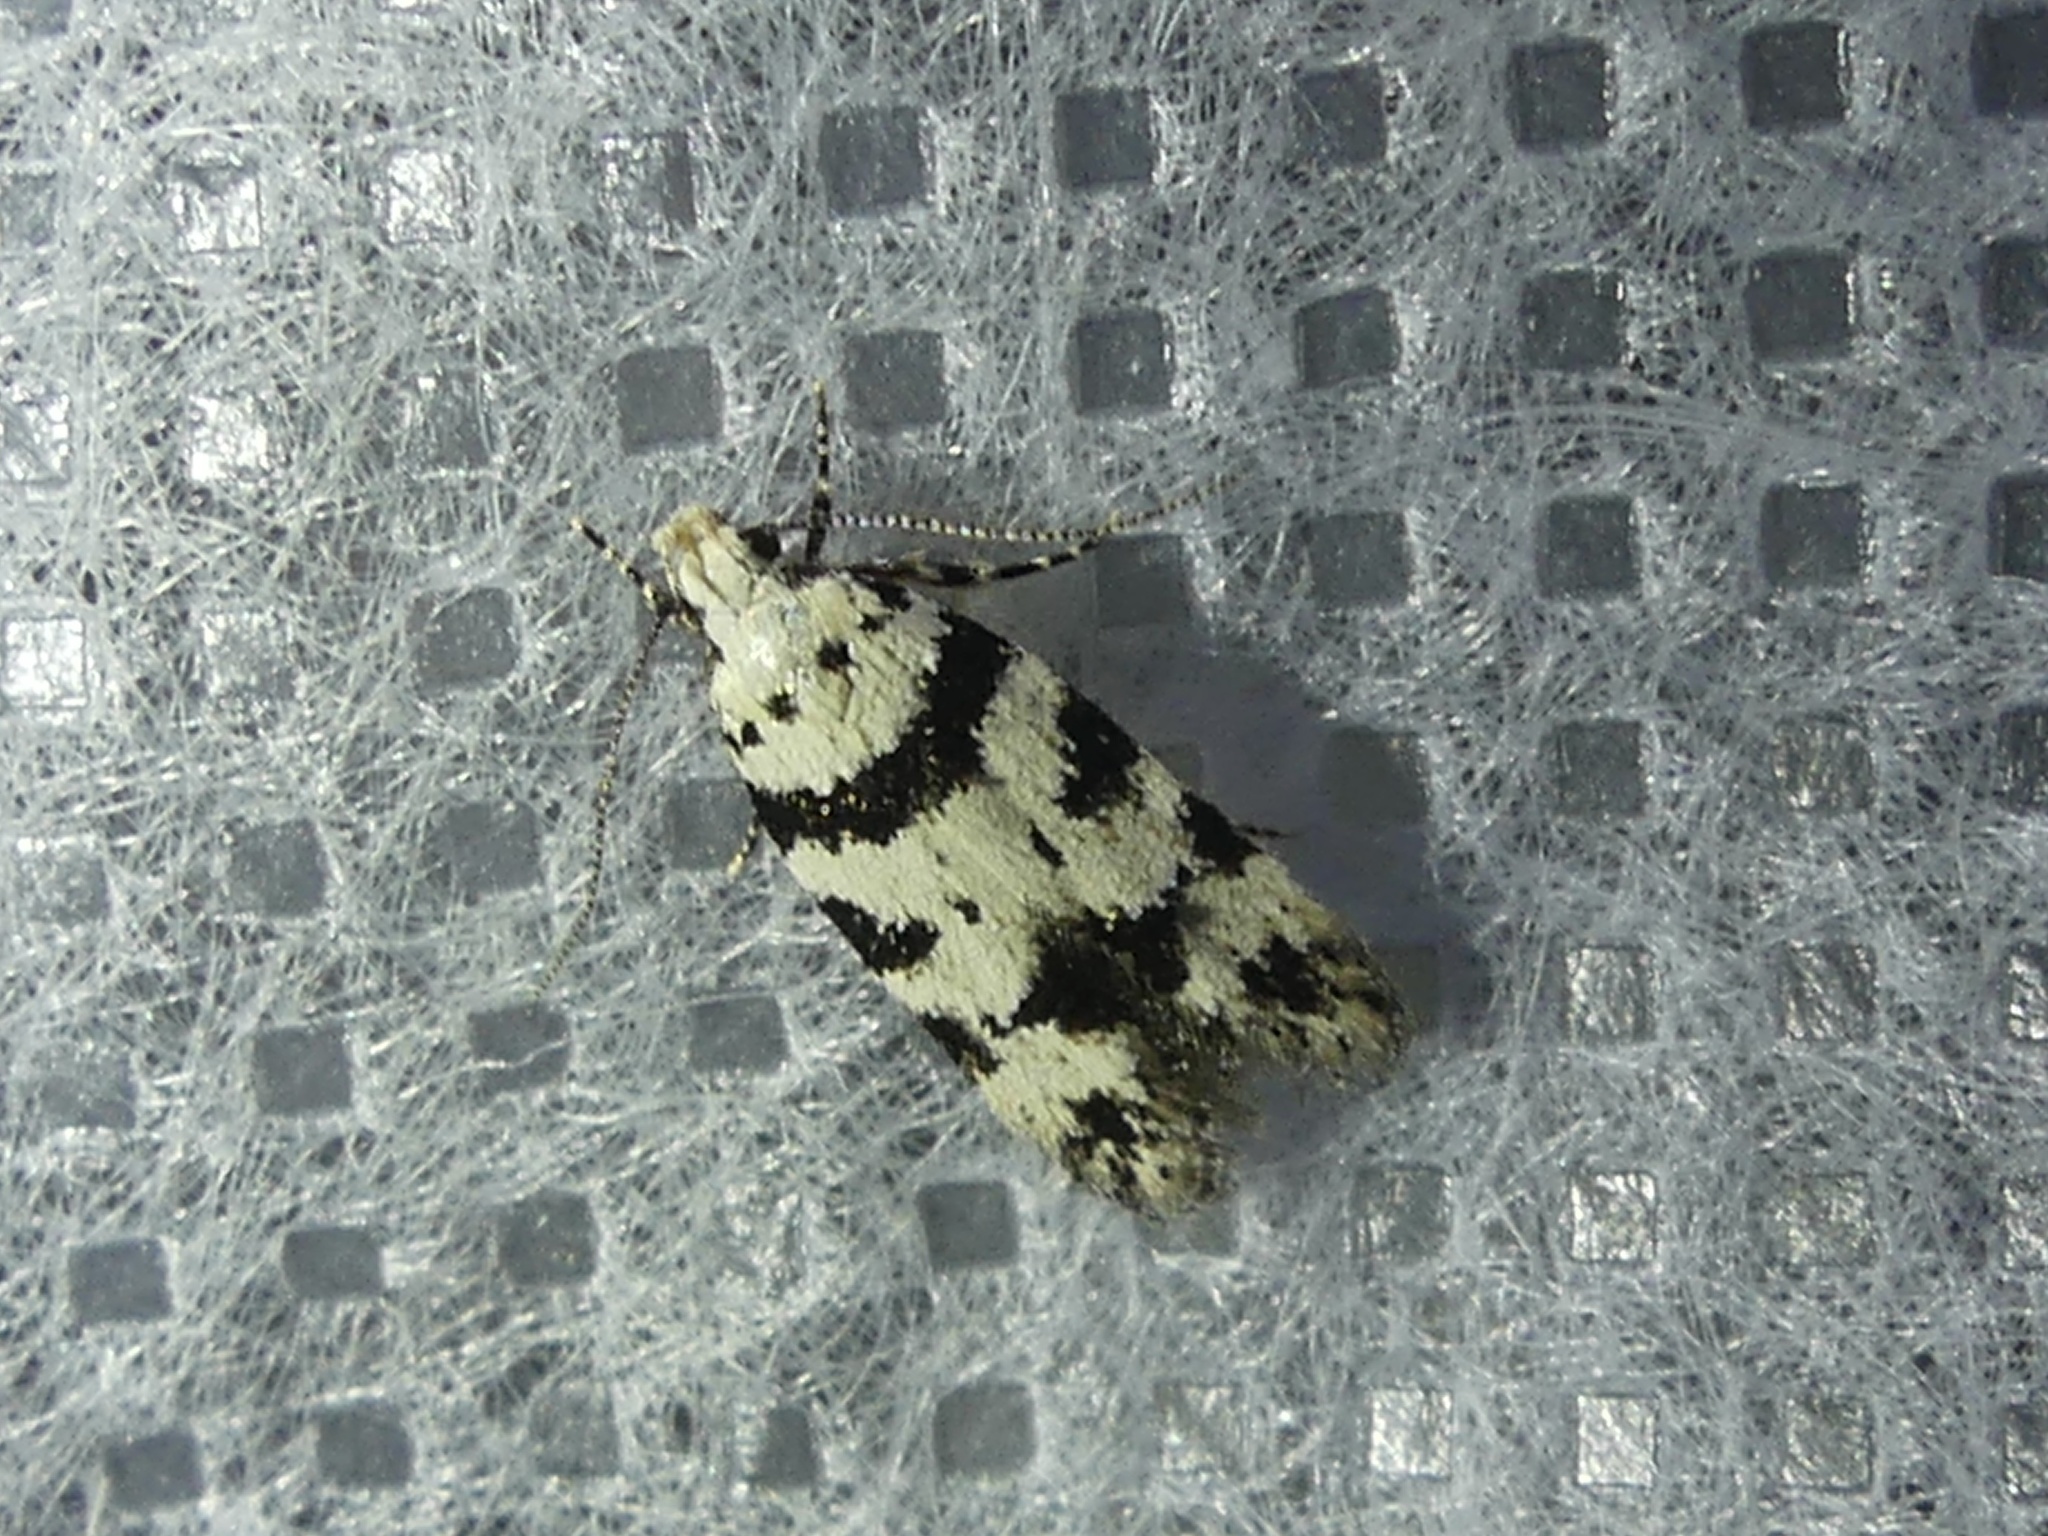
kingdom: Animalia
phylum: Arthropoda
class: Insecta
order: Lepidoptera
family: Gelechiidae
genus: Pseudotelphusa
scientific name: Pseudotelphusa scalella
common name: Black-spotted groundling
